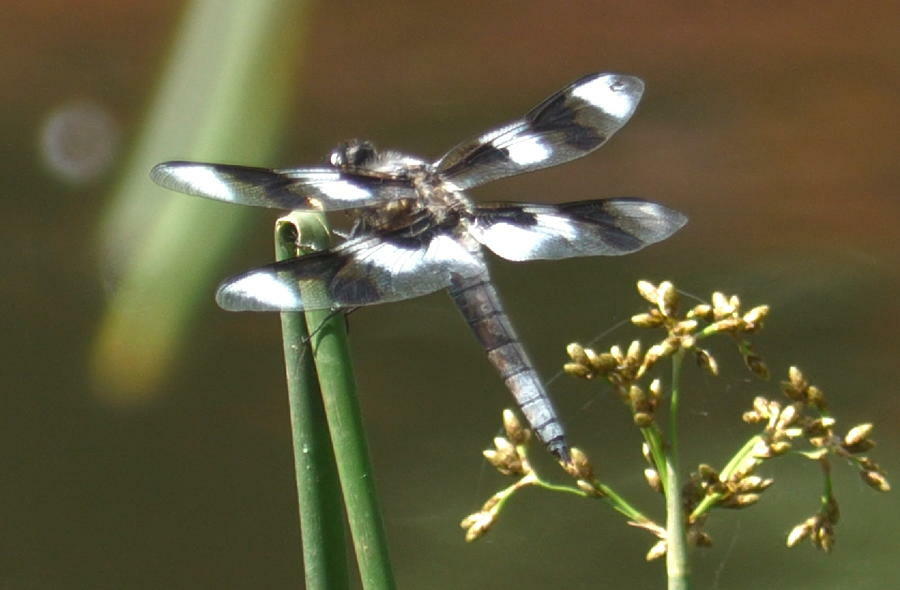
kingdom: Animalia
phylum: Arthropoda
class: Insecta
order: Odonata
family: Libellulidae
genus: Libellula
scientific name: Libellula forensis
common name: Eight-spotted skimmer
